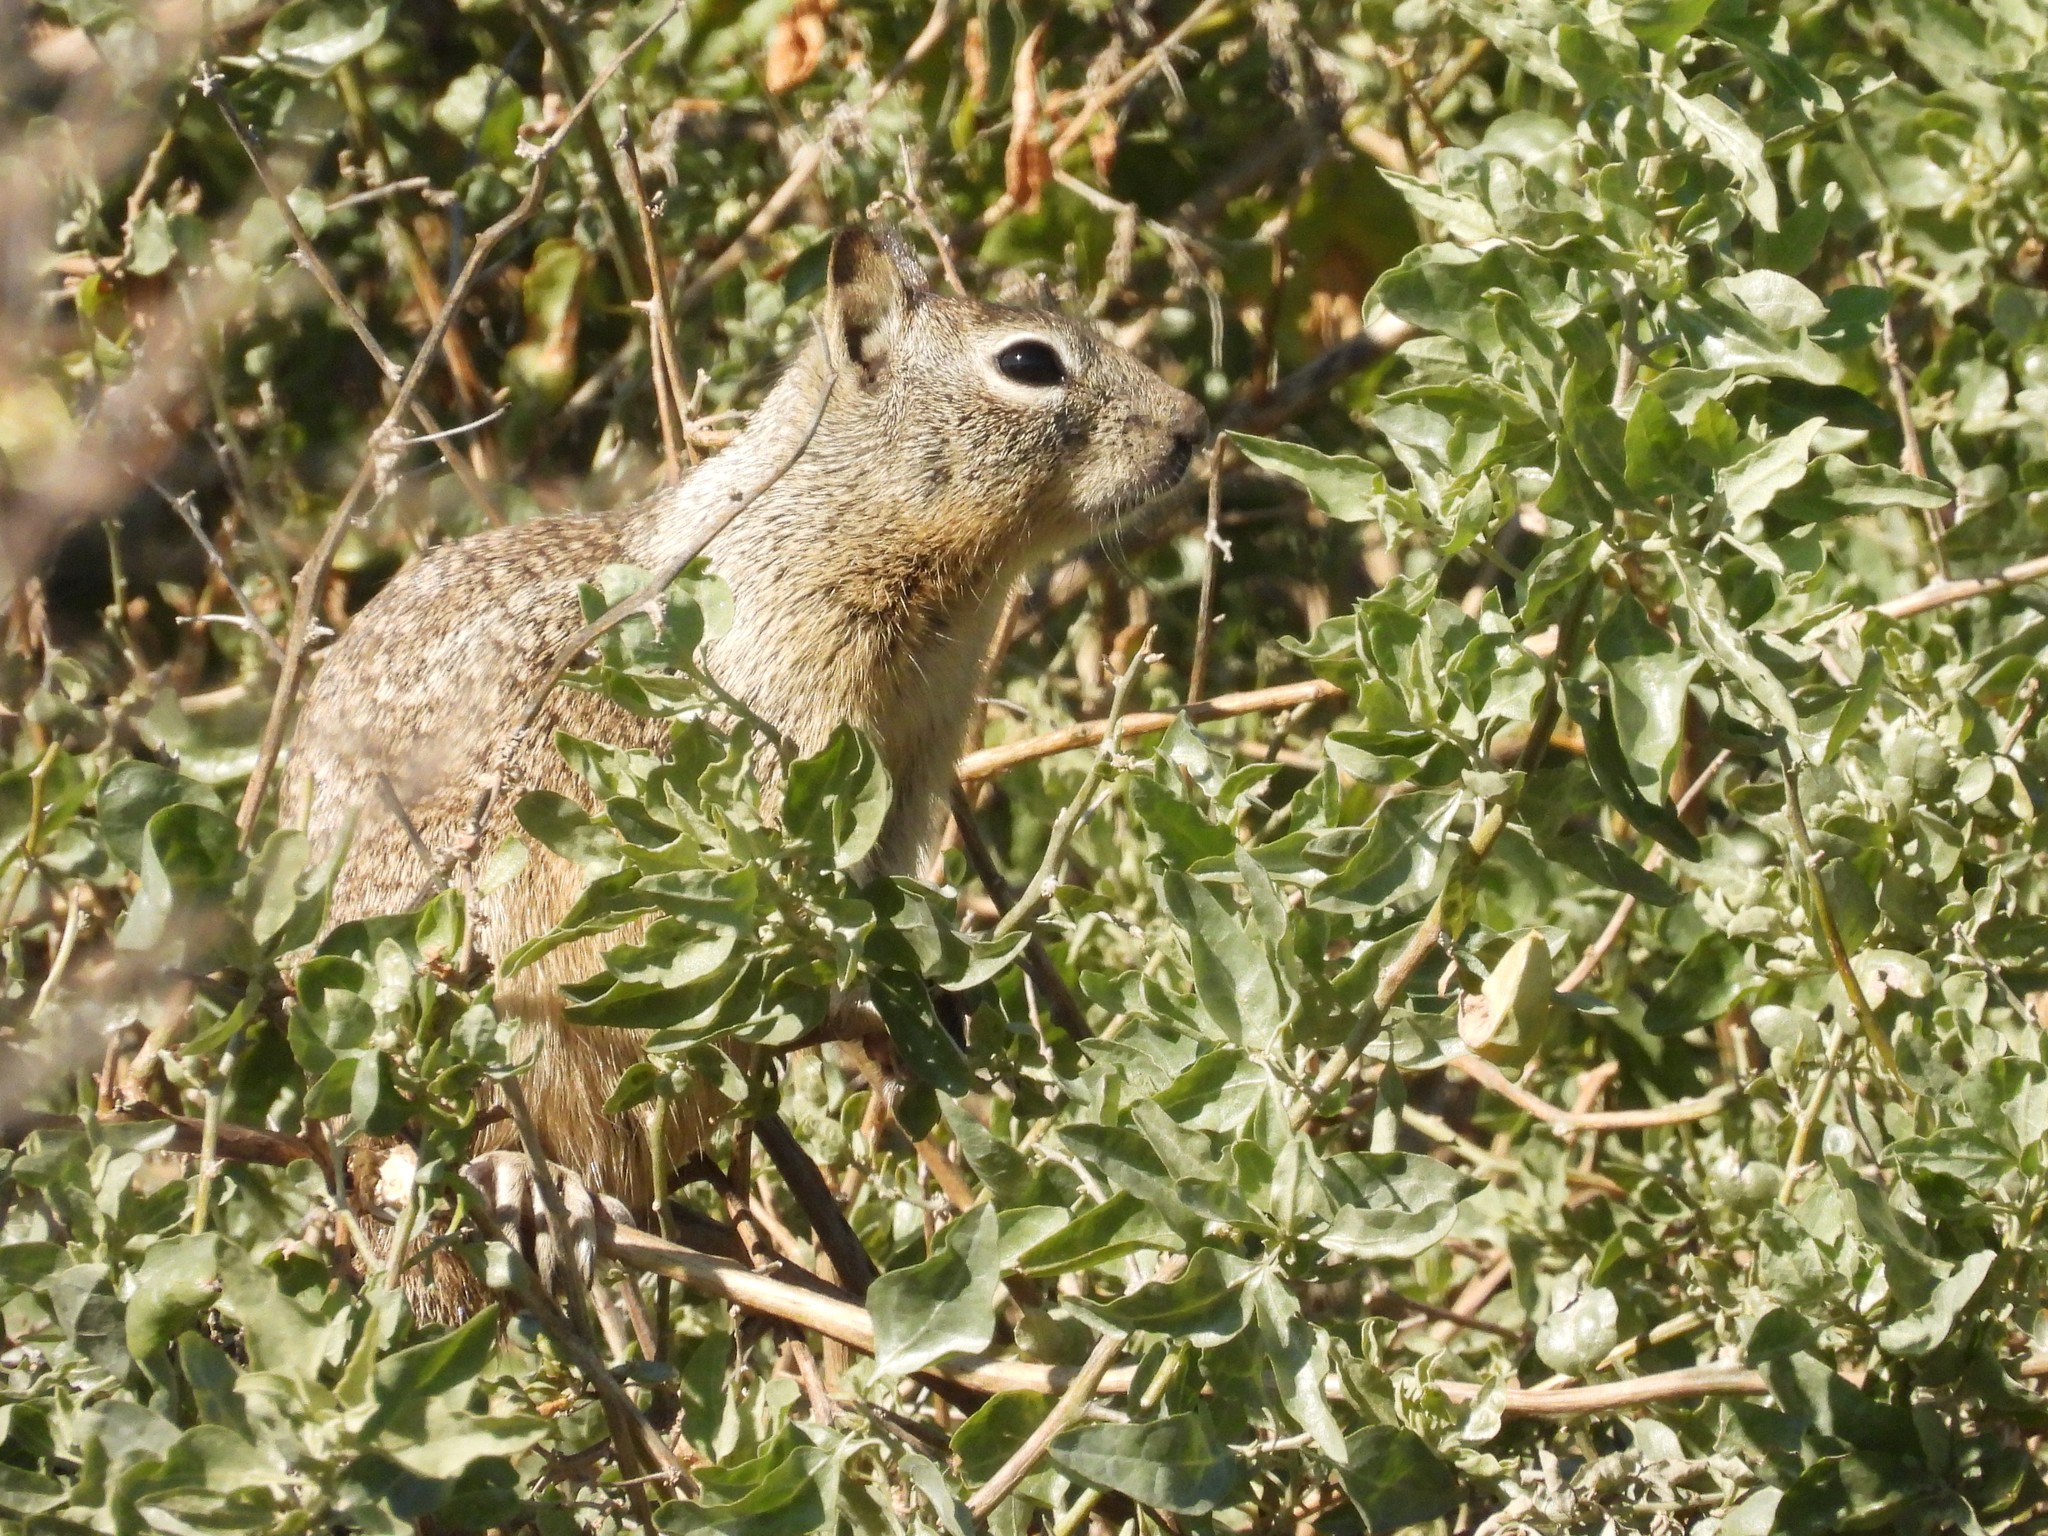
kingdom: Animalia
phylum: Chordata
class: Mammalia
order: Rodentia
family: Sciuridae
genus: Otospermophilus
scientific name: Otospermophilus beecheyi
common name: California ground squirrel
